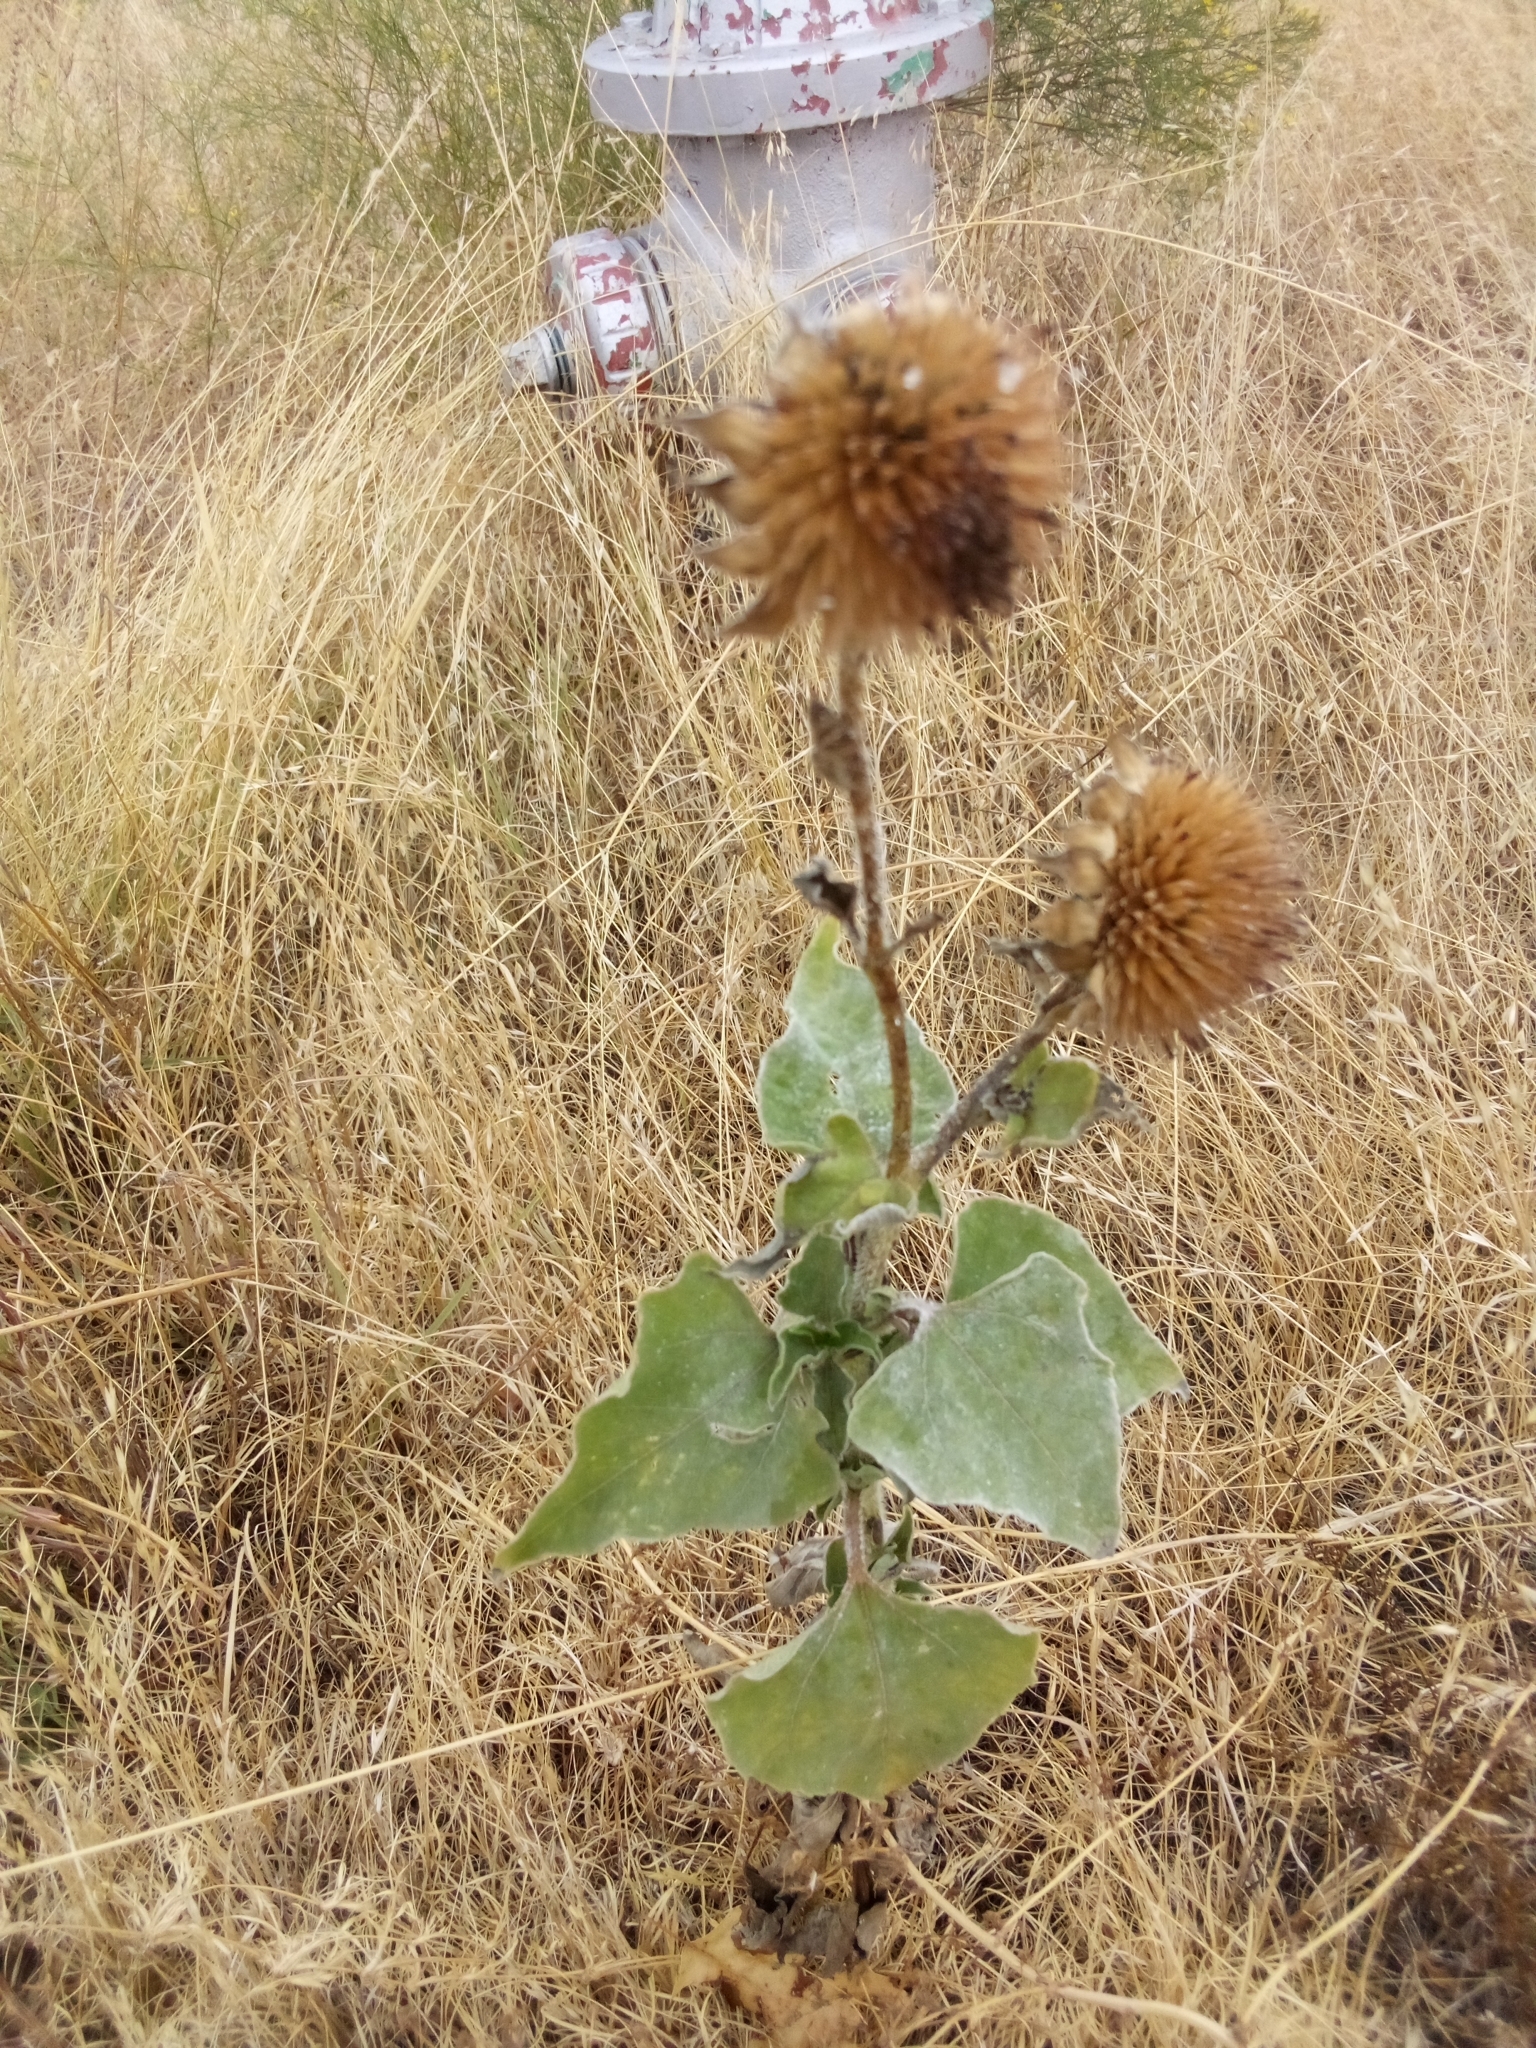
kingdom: Plantae
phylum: Tracheophyta
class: Magnoliopsida
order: Asterales
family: Asteraceae
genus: Helianthus
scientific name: Helianthus annuus
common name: Sunflower
